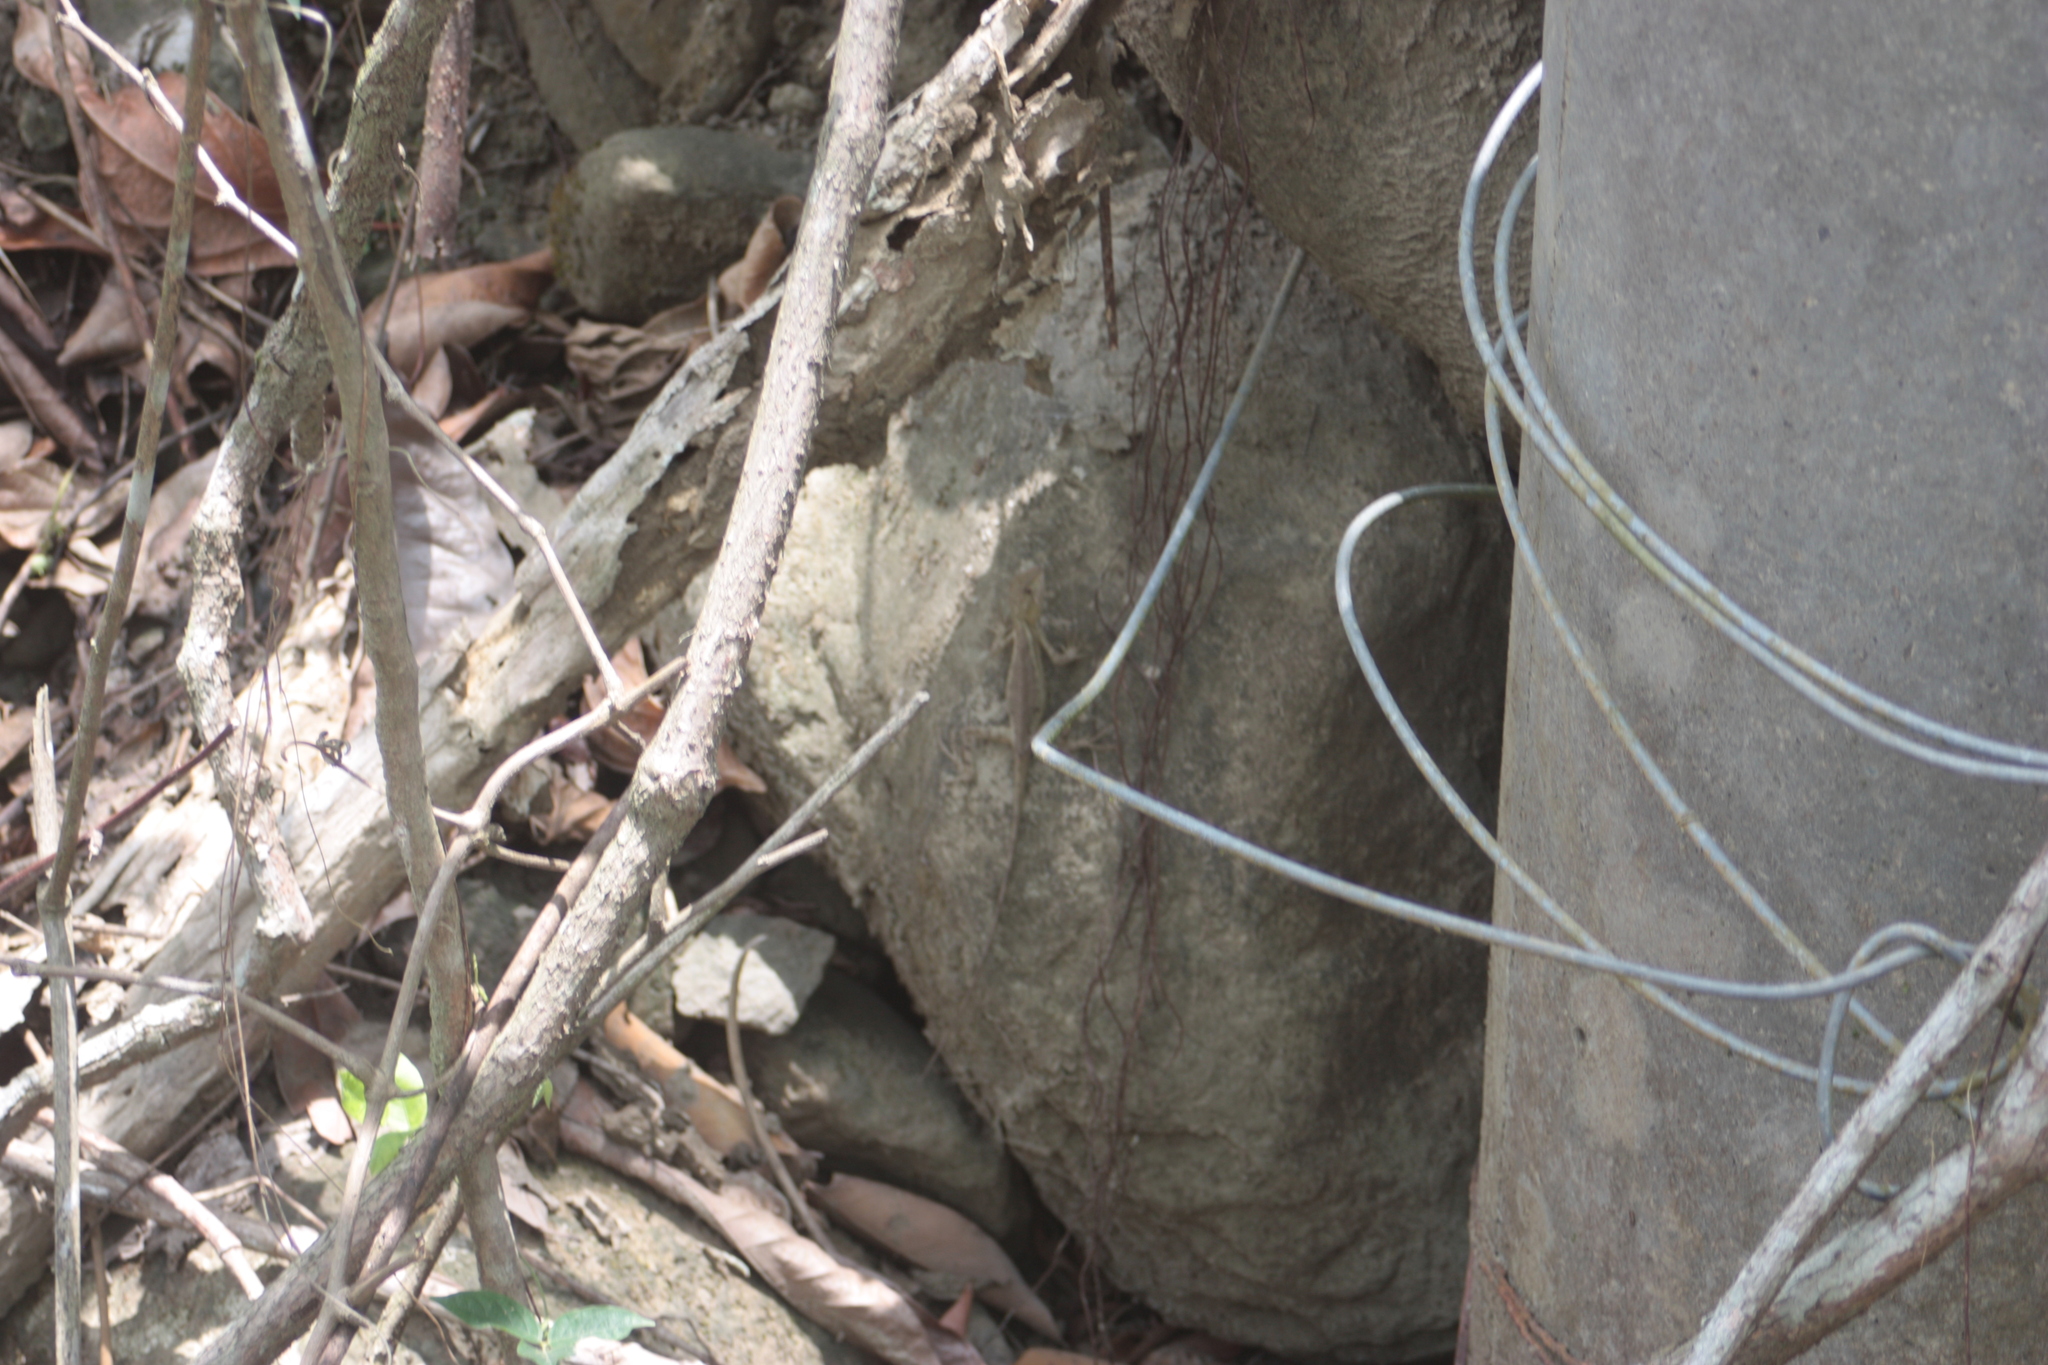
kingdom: Animalia
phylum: Chordata
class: Squamata
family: Agamidae
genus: Diploderma
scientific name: Diploderma swinhonis
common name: Taiwan japalure
